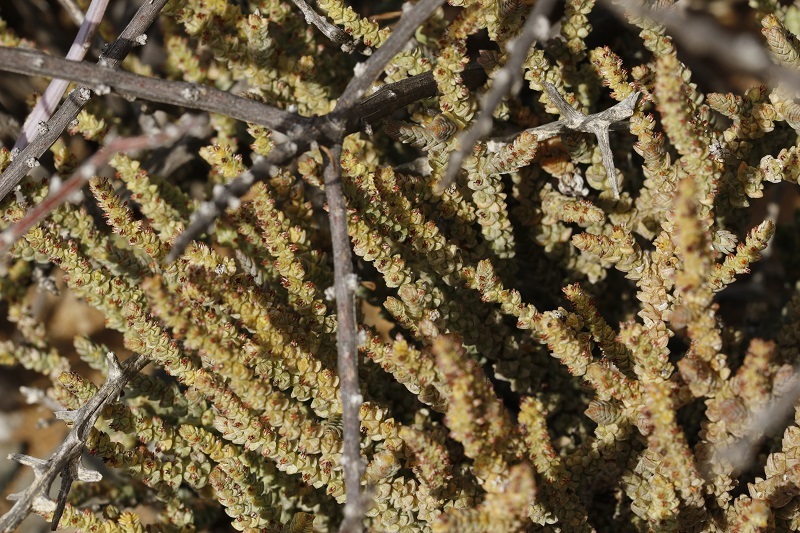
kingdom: Plantae
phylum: Tracheophyta
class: Magnoliopsida
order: Saxifragales
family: Crassulaceae
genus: Crassula
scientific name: Crassula muscosa
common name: Toy-cypress
